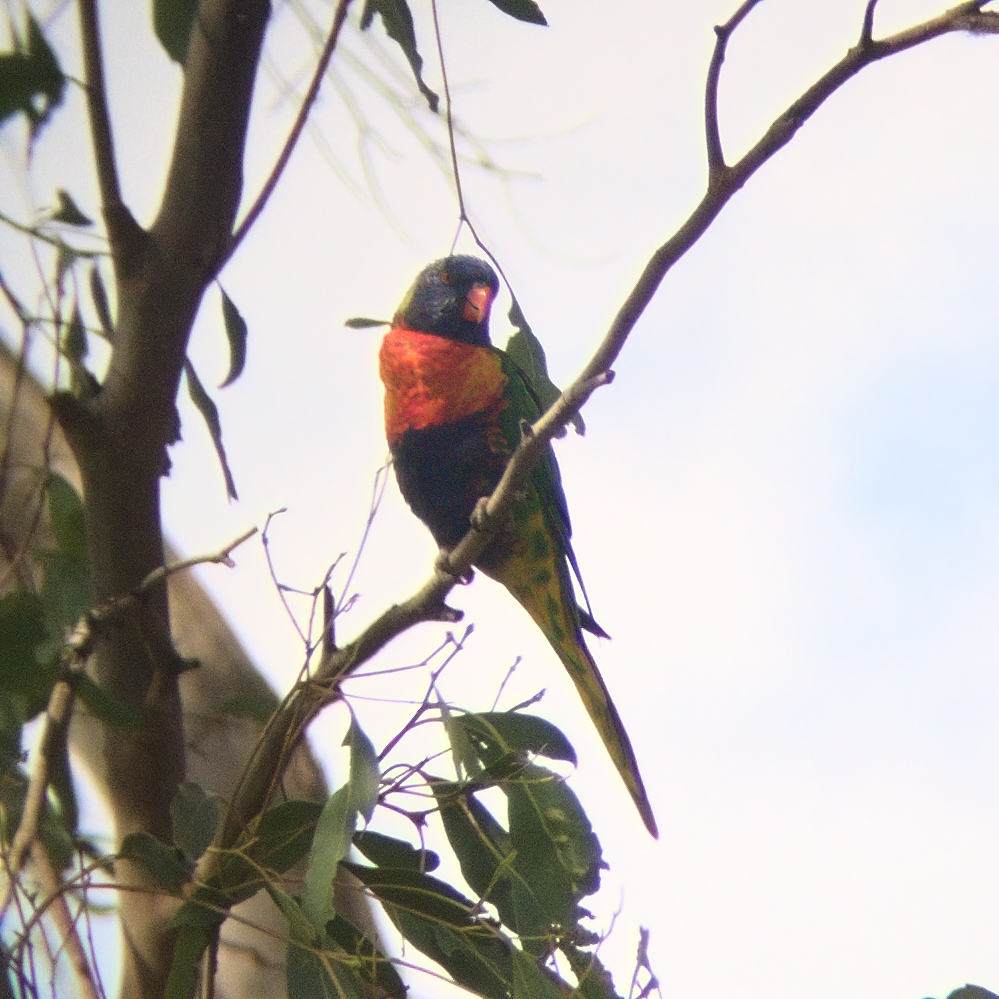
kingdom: Animalia
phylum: Chordata
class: Aves
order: Psittaciformes
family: Psittacidae
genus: Trichoglossus
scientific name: Trichoglossus haematodus
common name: Coconut lorikeet
